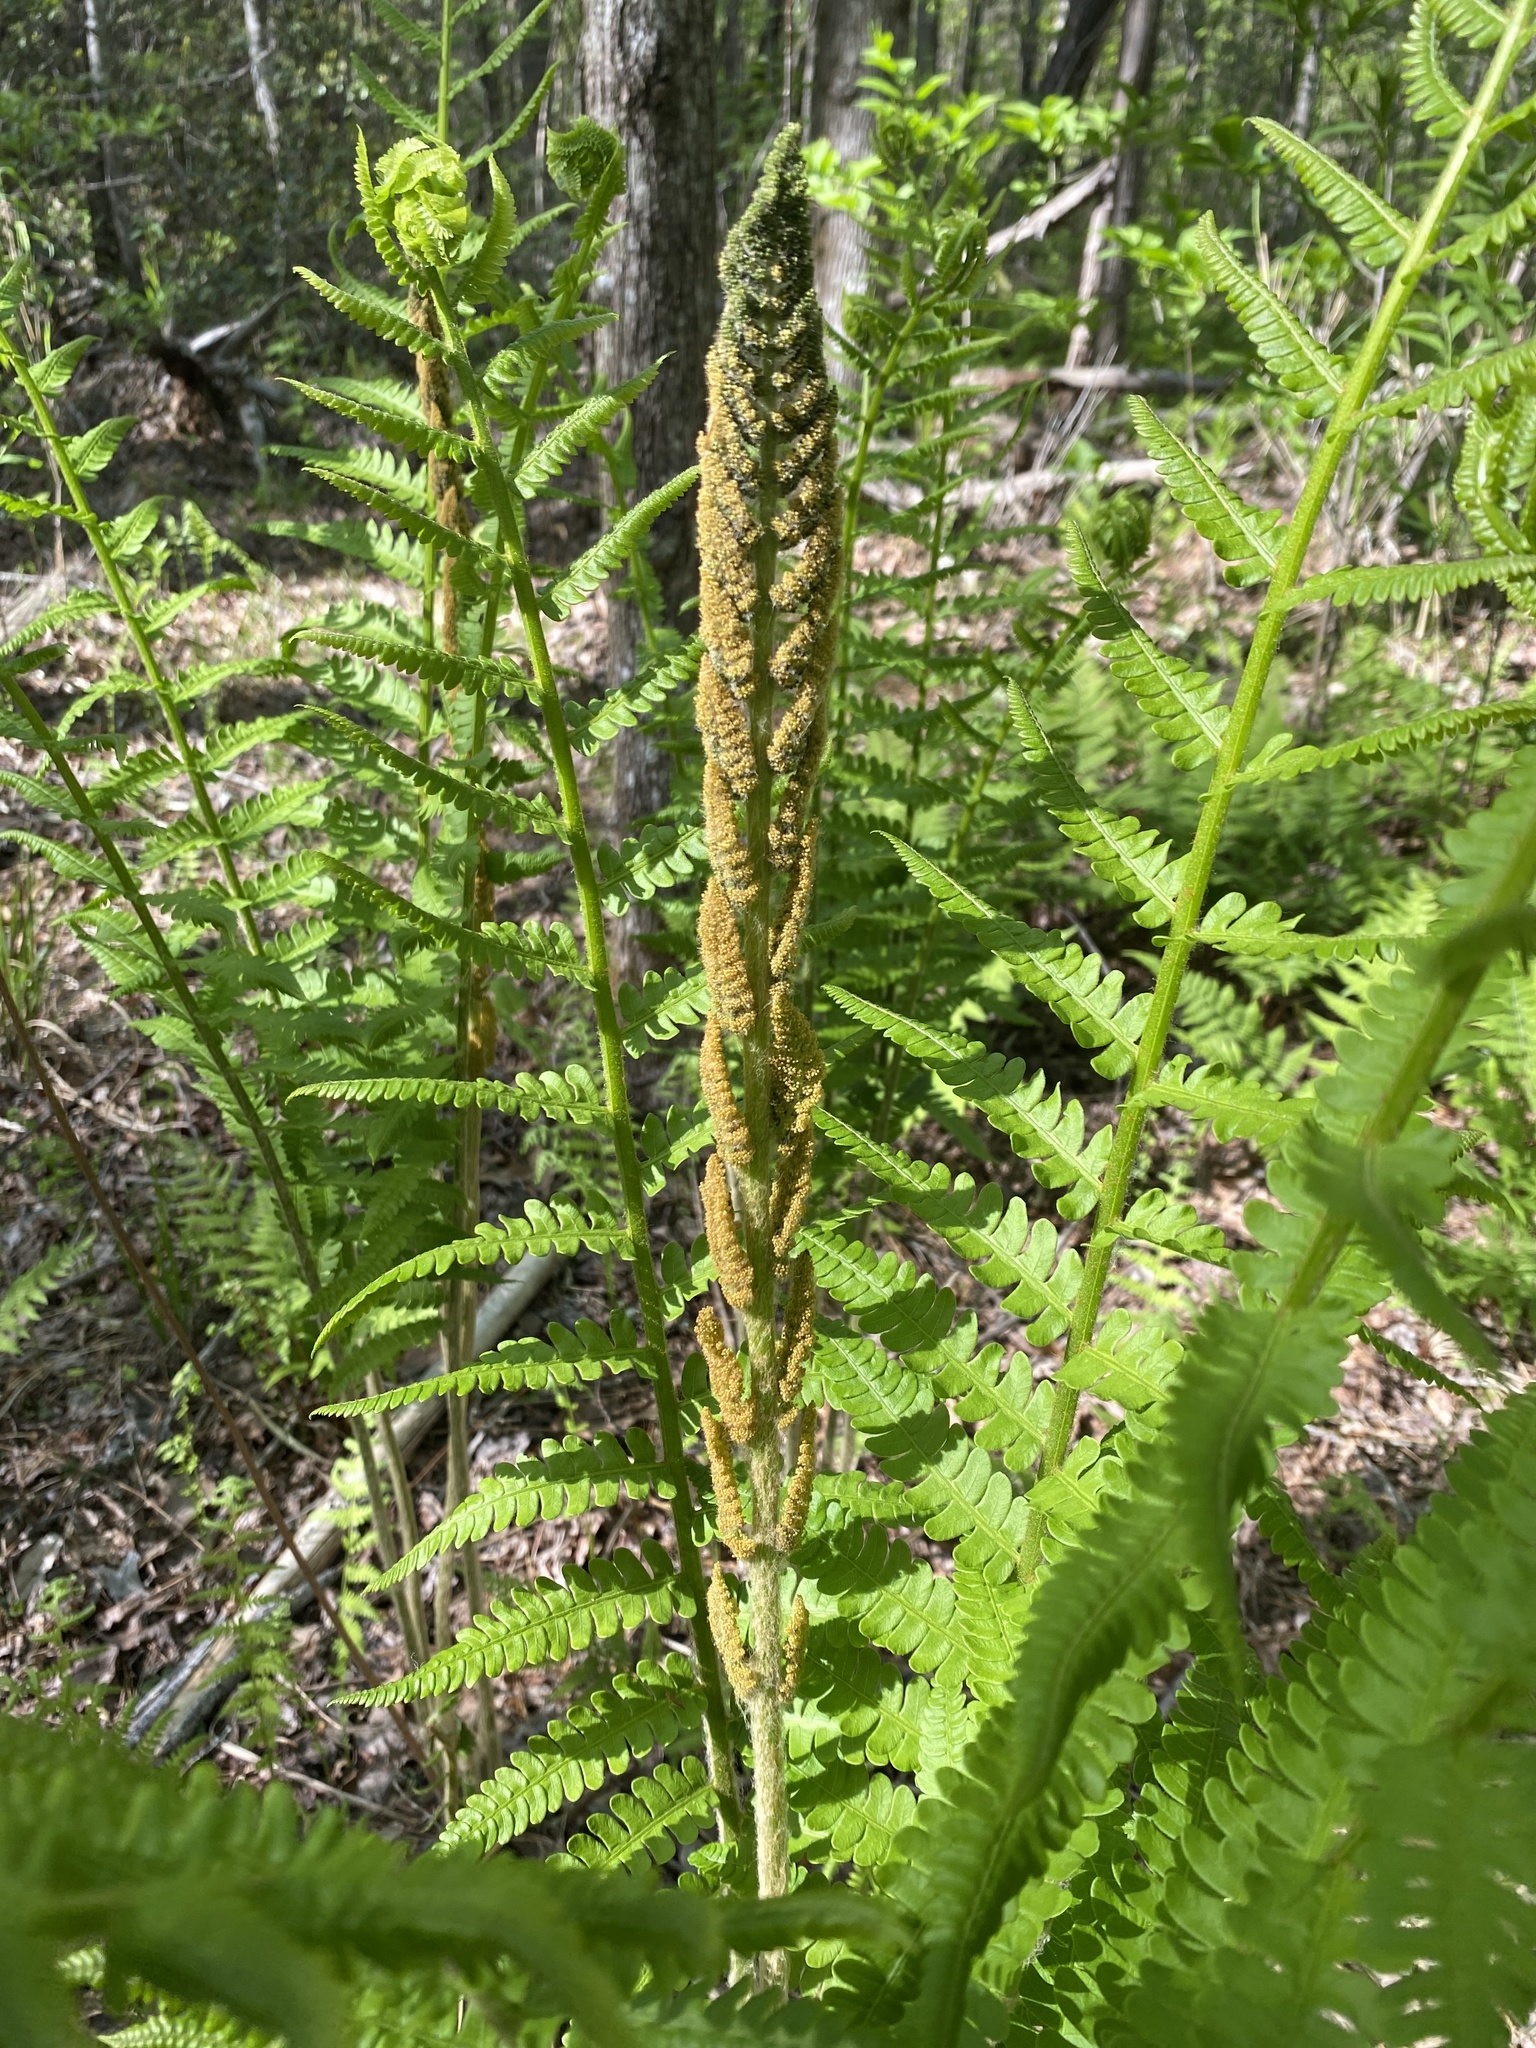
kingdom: Plantae
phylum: Tracheophyta
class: Polypodiopsida
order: Osmundales
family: Osmundaceae
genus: Osmundastrum
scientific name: Osmundastrum cinnamomeum
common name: Cinnamon fern
